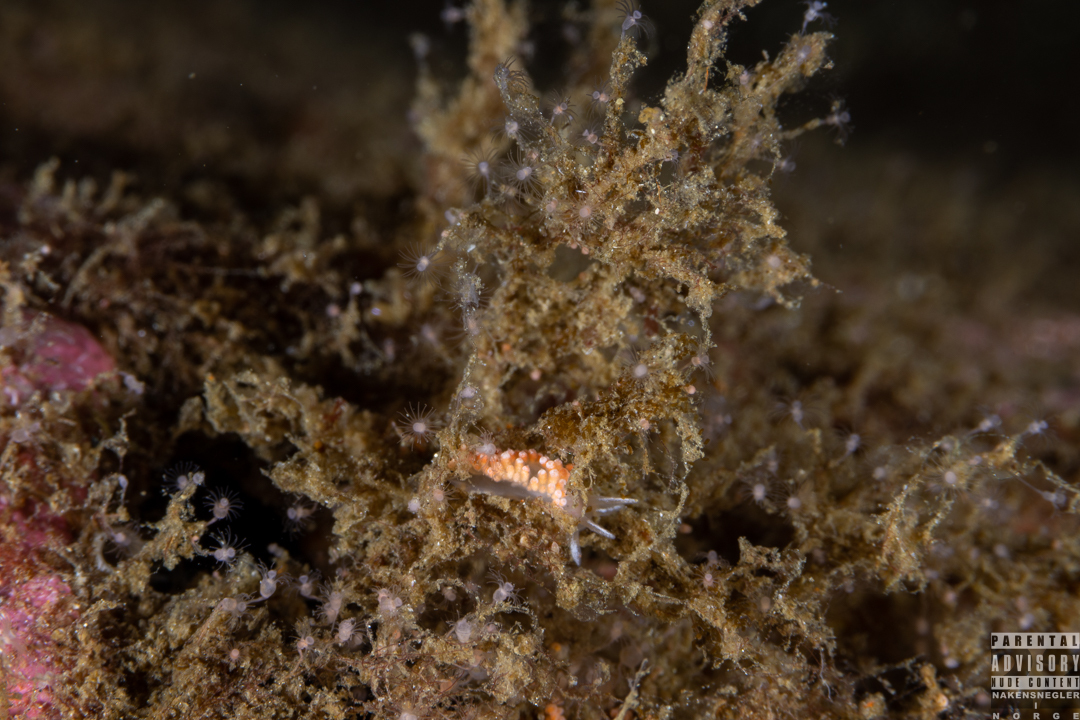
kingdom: Animalia
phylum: Mollusca
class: Gastropoda
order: Nudibranchia
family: Coryphellidae
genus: Coryphella
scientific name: Coryphella verrucosa
